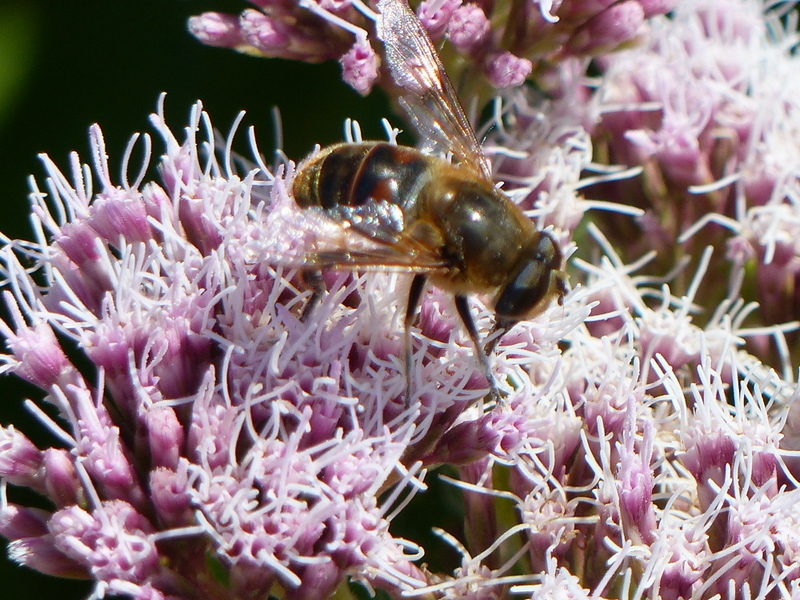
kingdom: Animalia
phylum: Arthropoda
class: Insecta
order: Diptera
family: Syrphidae
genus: Eristalis
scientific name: Eristalis tenax
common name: Drone fly
